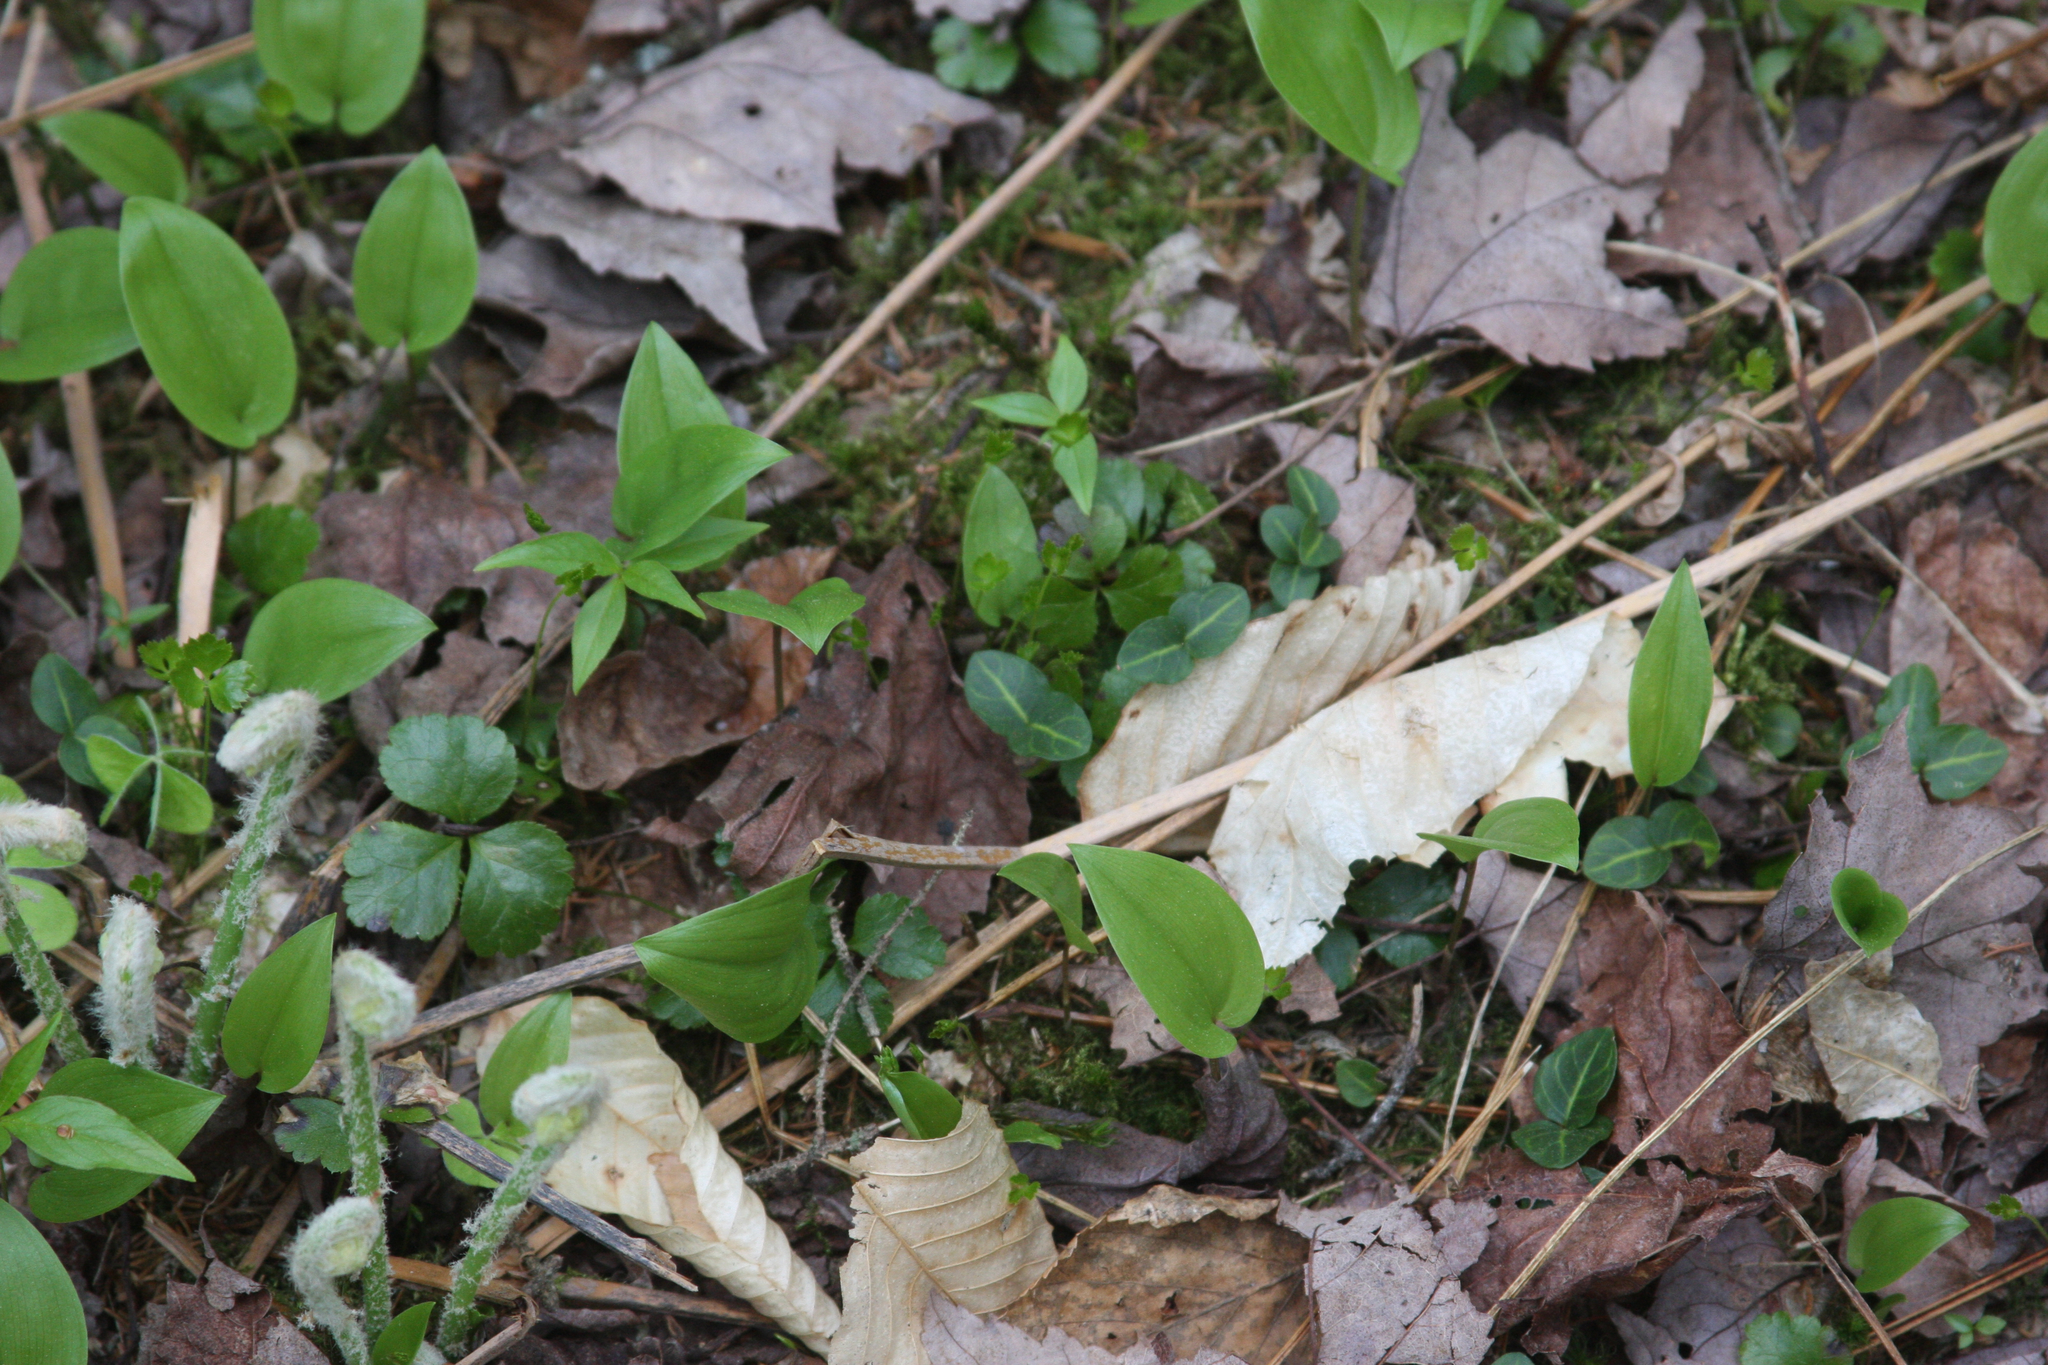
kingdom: Plantae
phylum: Tracheophyta
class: Magnoliopsida
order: Gentianales
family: Rubiaceae
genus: Mitchella
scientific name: Mitchella repens
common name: Partridge-berry
